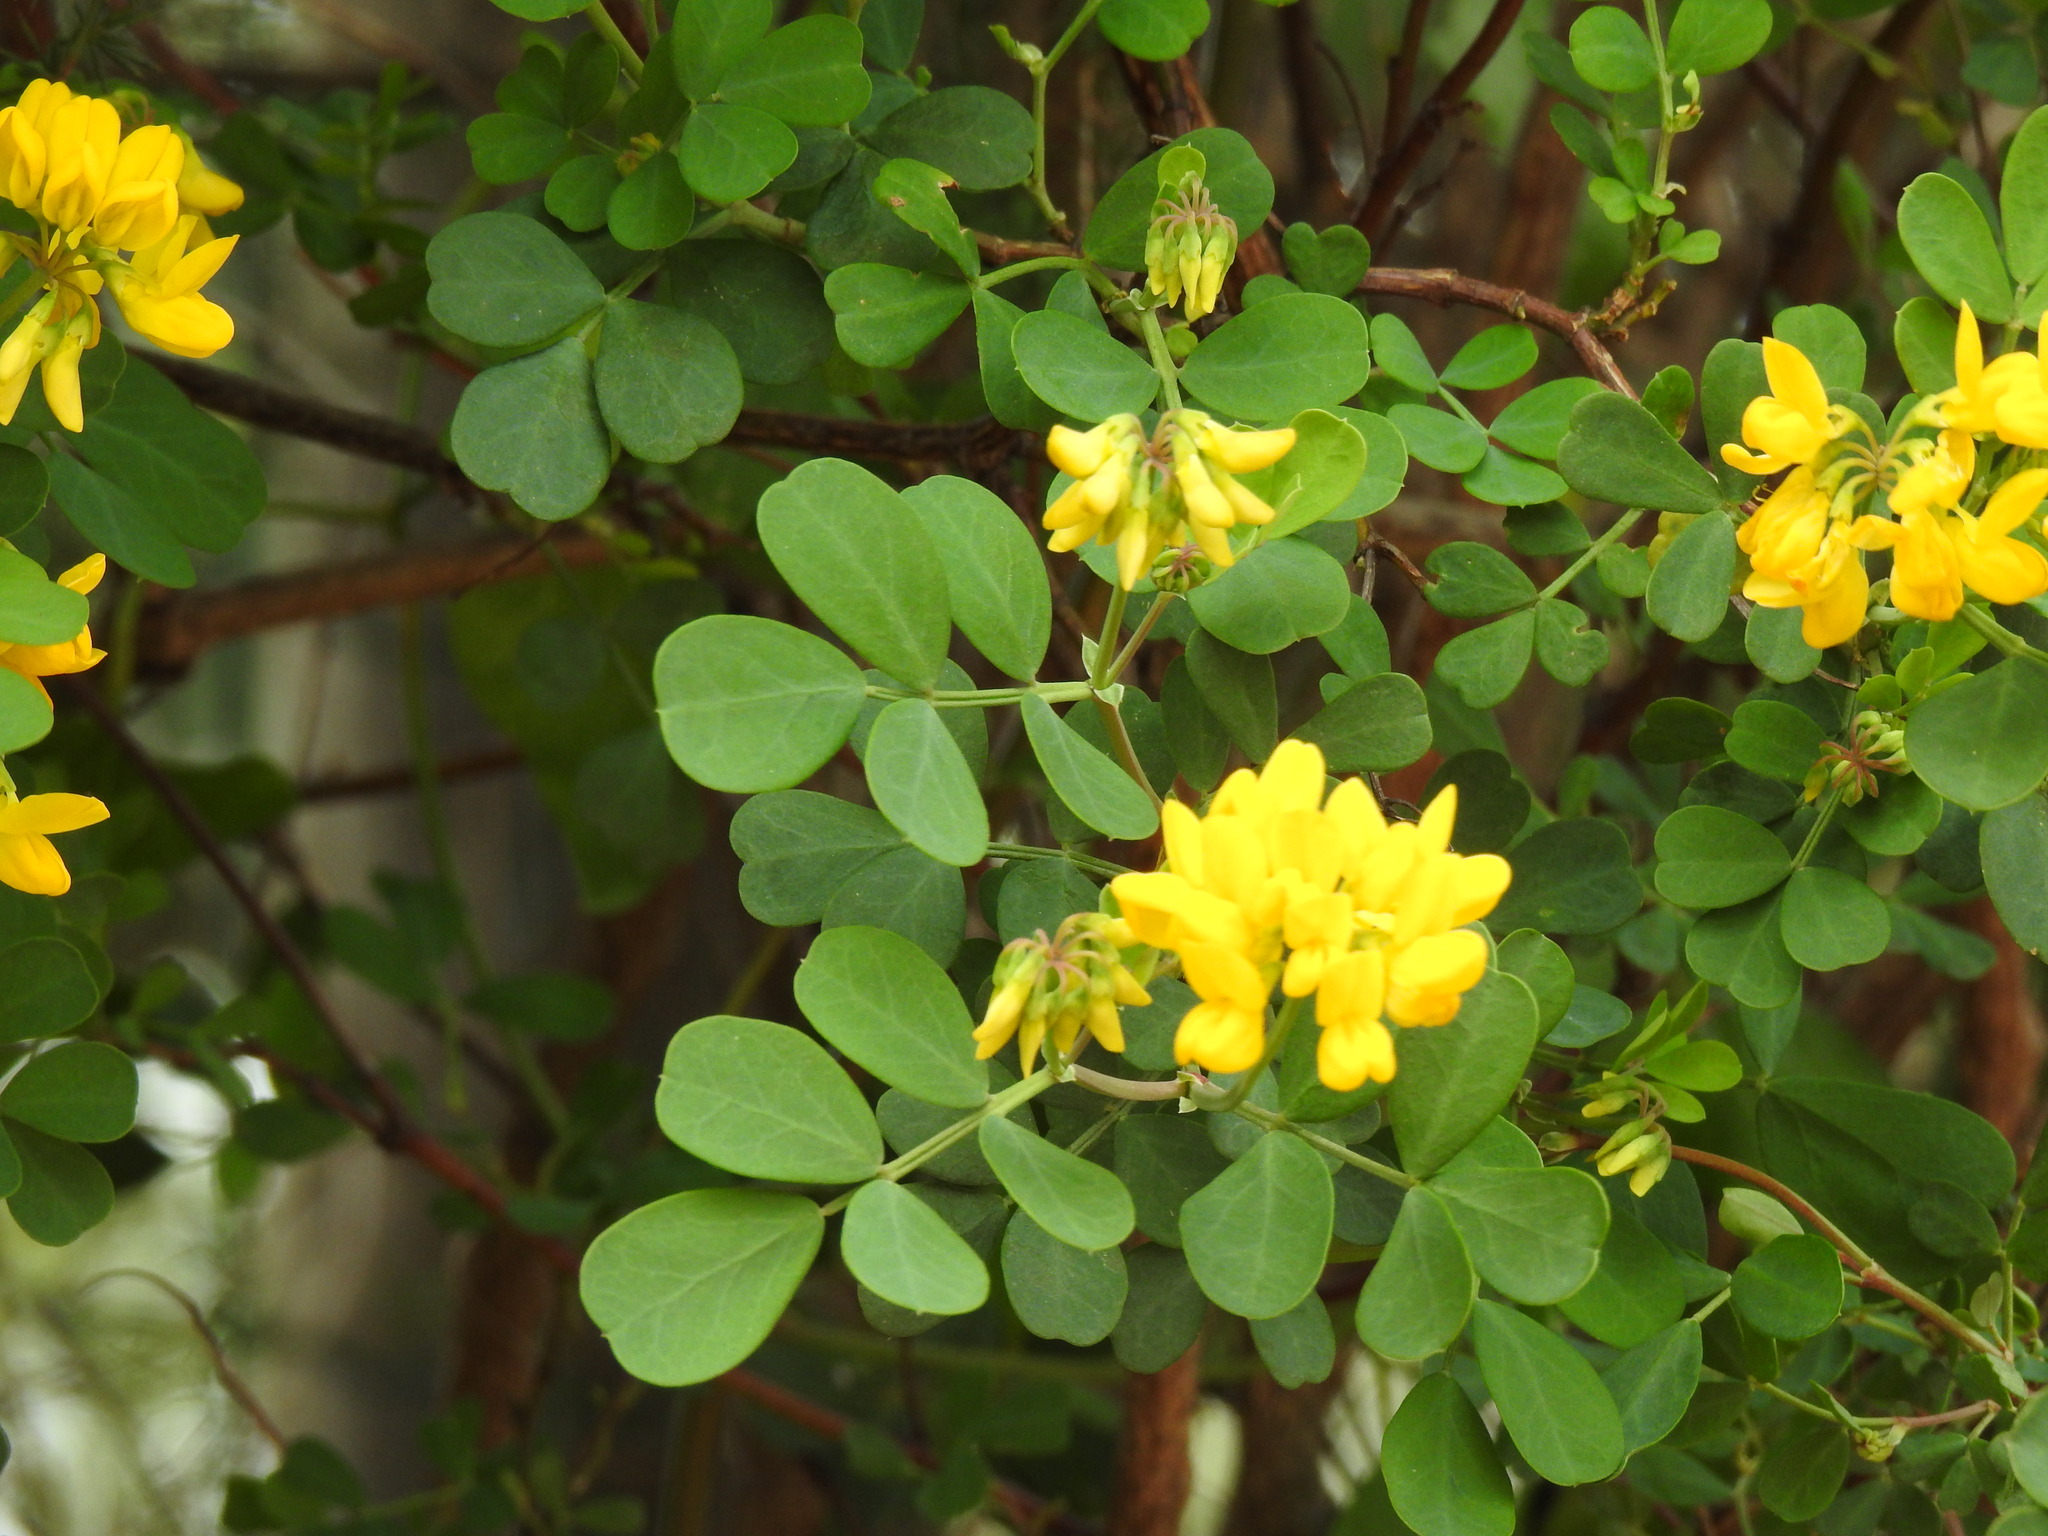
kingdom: Plantae
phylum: Tracheophyta
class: Magnoliopsida
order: Fabales
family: Fabaceae
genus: Coronilla
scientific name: Coronilla valentina
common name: Shrubby scorpion-vetch
